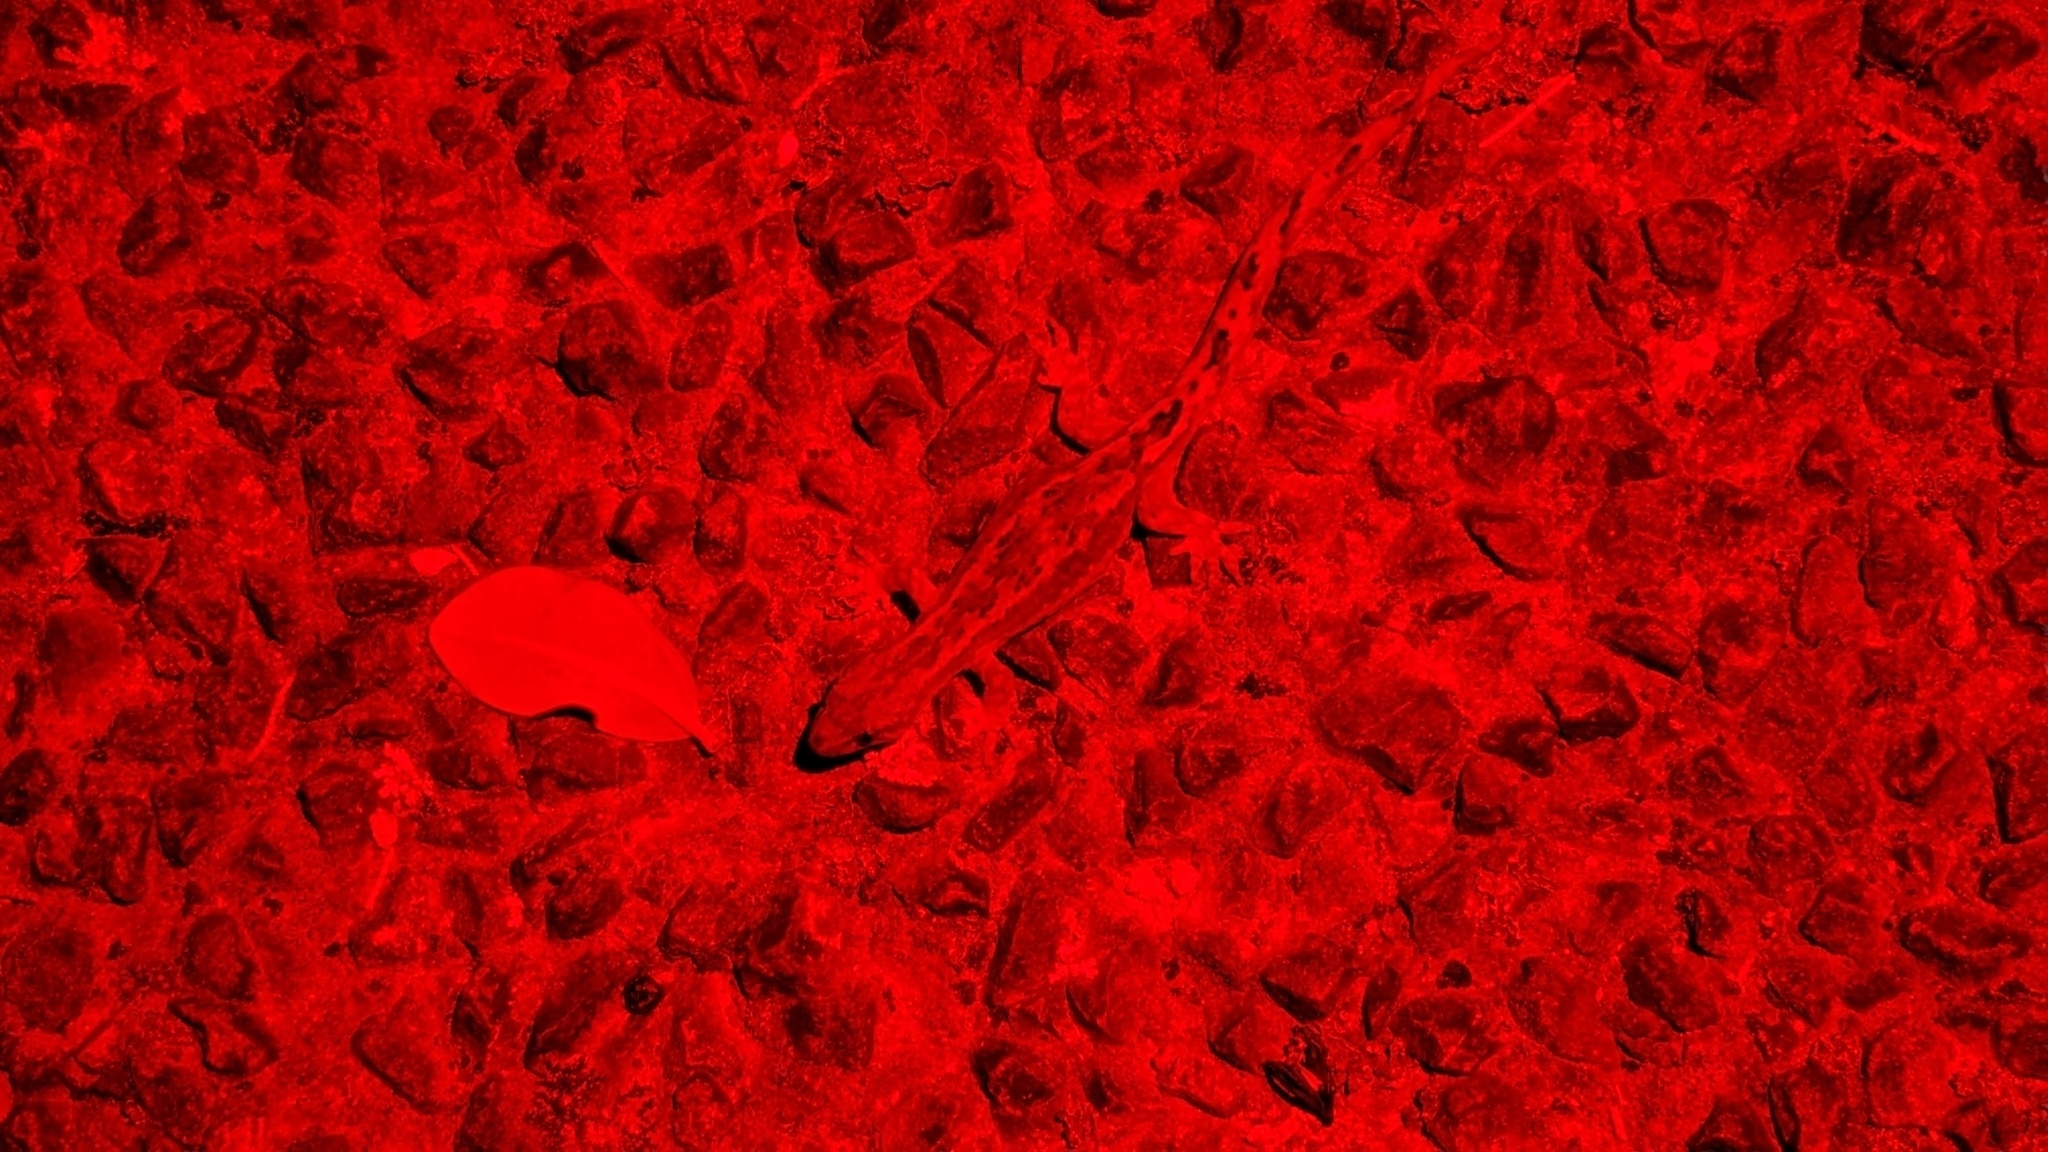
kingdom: Animalia
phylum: Chordata
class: Squamata
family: Diplodactylidae
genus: Woodworthia
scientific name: Woodworthia maculata
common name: Raukawa gecko
